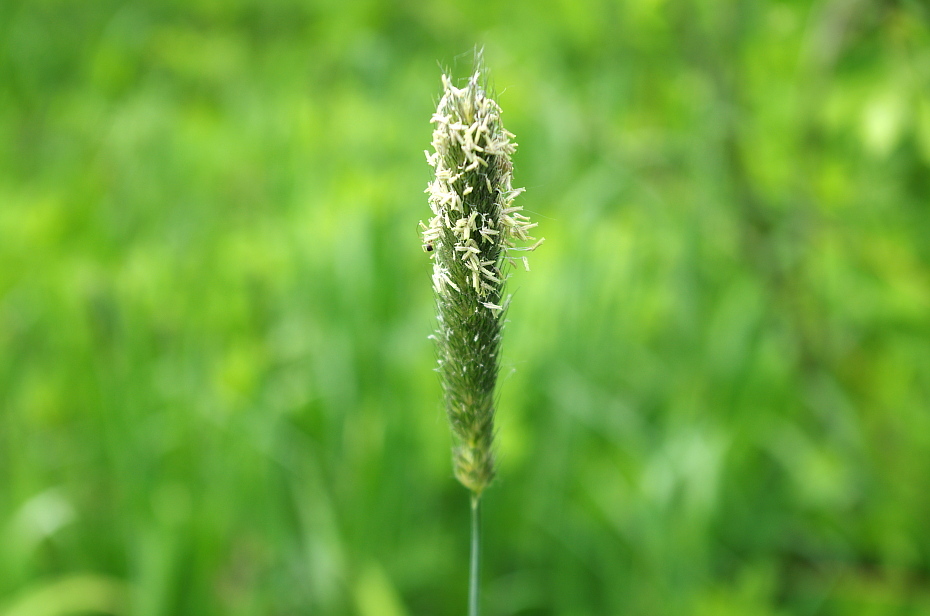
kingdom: Plantae
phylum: Tracheophyta
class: Liliopsida
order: Poales
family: Poaceae
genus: Alopecurus
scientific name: Alopecurus pratensis
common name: Meadow foxtail
